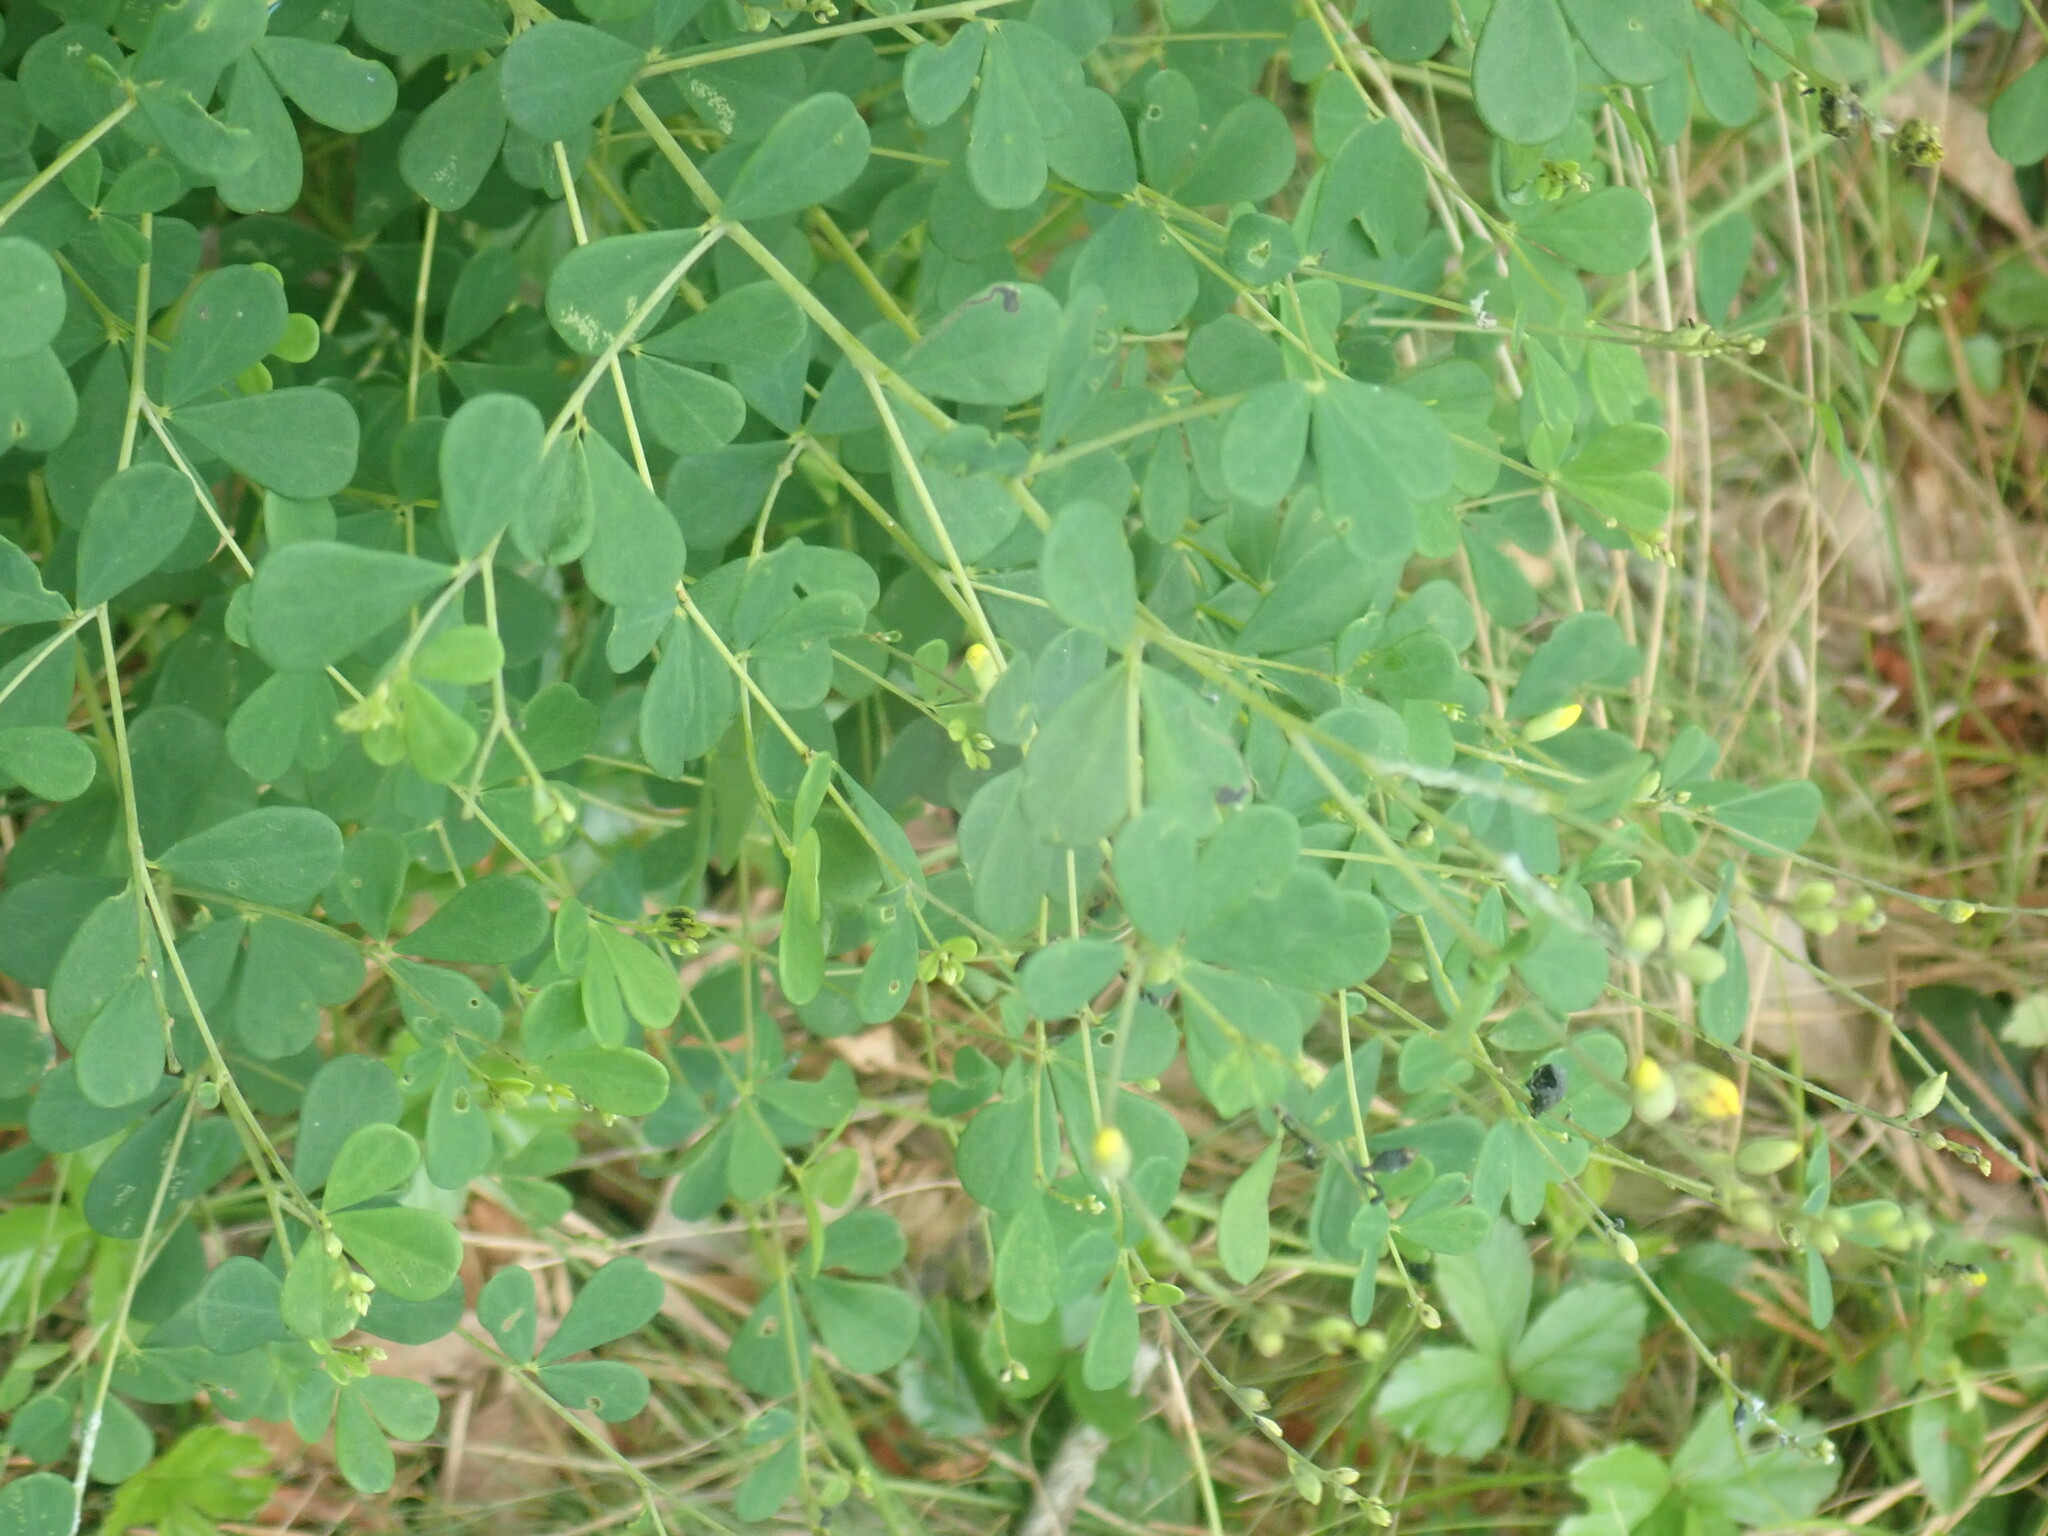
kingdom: Plantae
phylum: Tracheophyta
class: Magnoliopsida
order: Fabales
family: Fabaceae
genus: Baptisia
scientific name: Baptisia tinctoria
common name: Wild indigo
